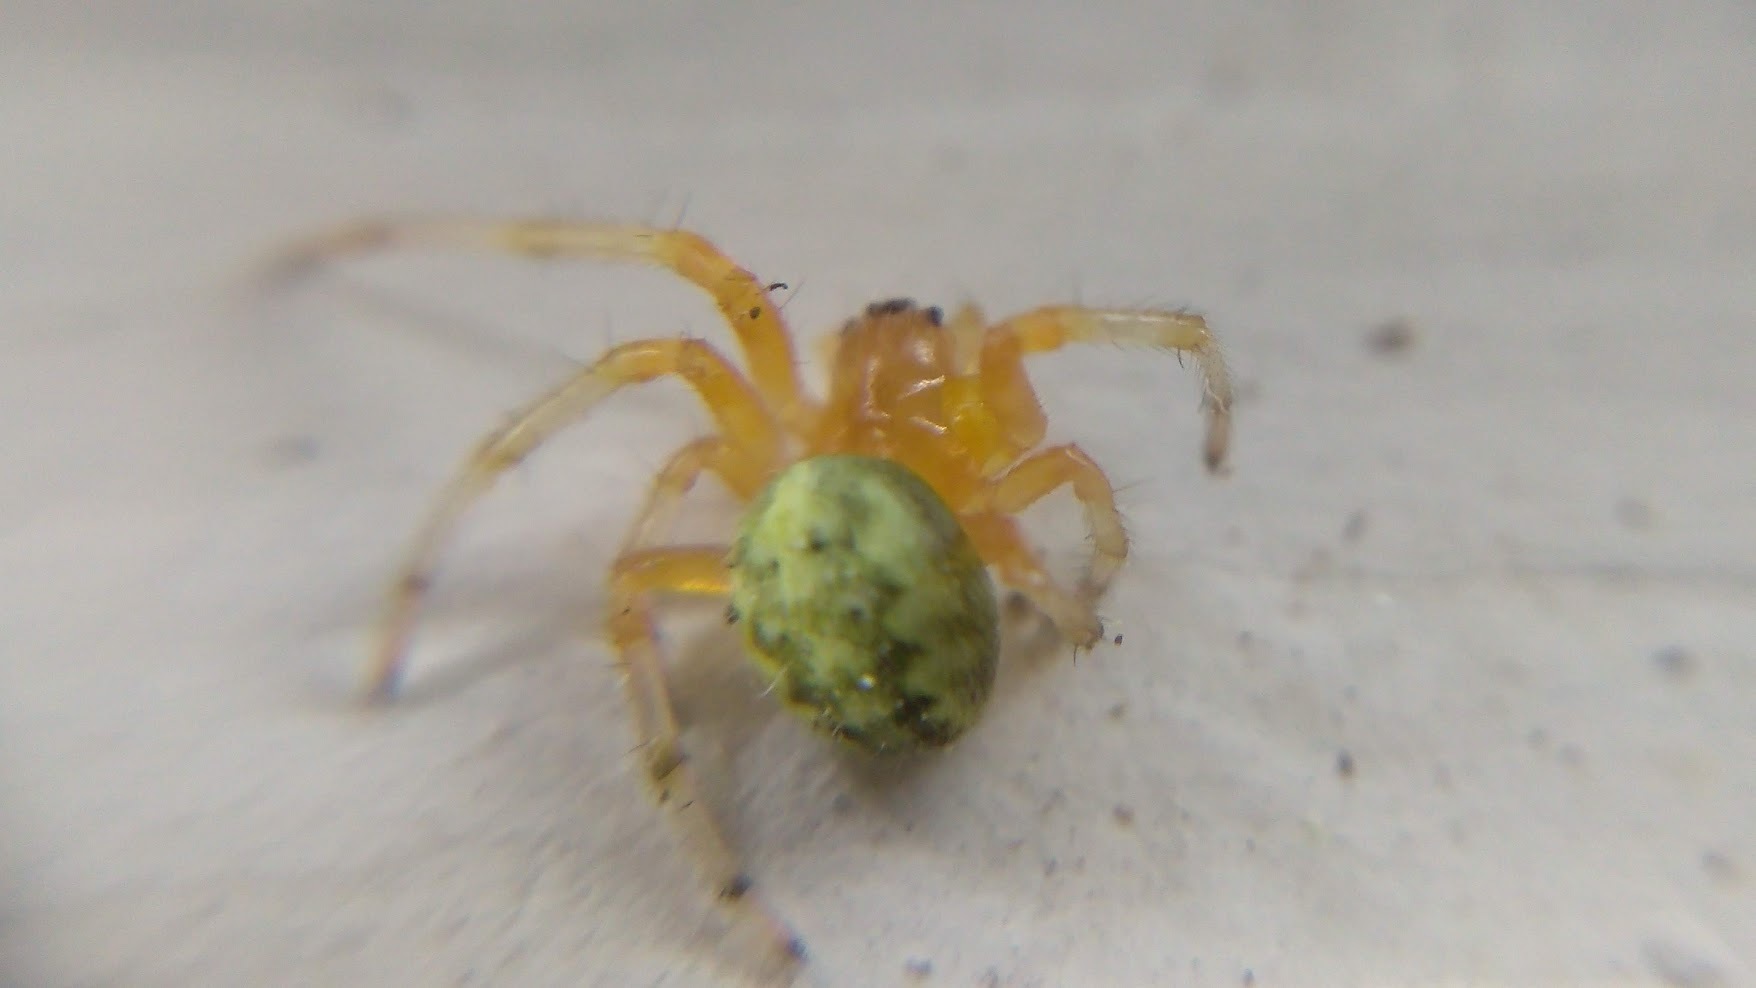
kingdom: Animalia
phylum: Arthropoda
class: Arachnida
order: Araneae
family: Araneidae
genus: Araneus
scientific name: Araneus marmoreus
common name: Marbled orbweaver
